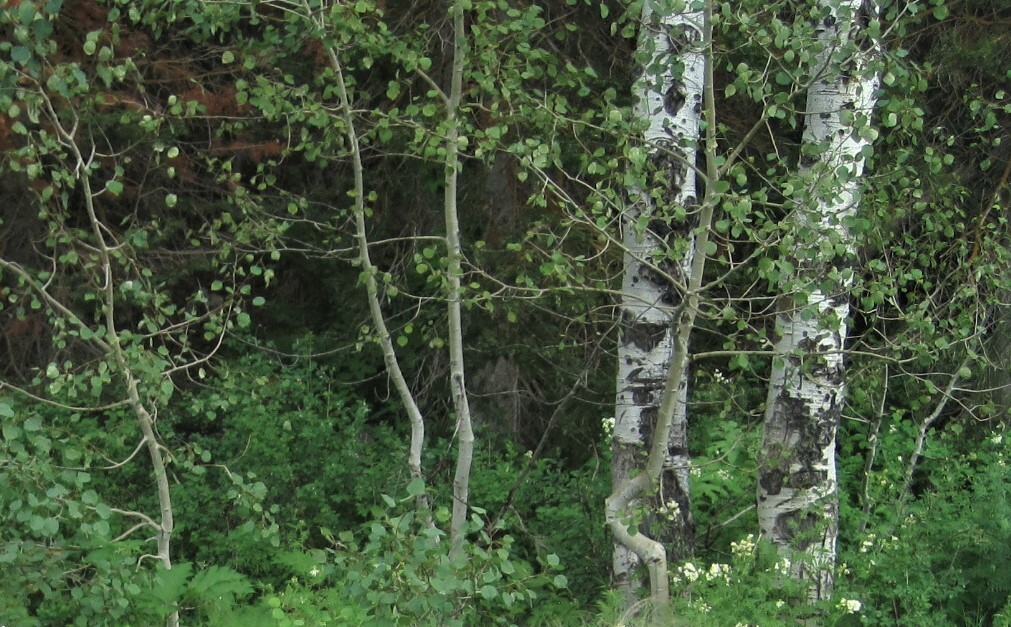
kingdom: Plantae
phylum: Tracheophyta
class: Magnoliopsida
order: Malpighiales
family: Salicaceae
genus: Populus
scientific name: Populus tremuloides
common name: Quaking aspen
